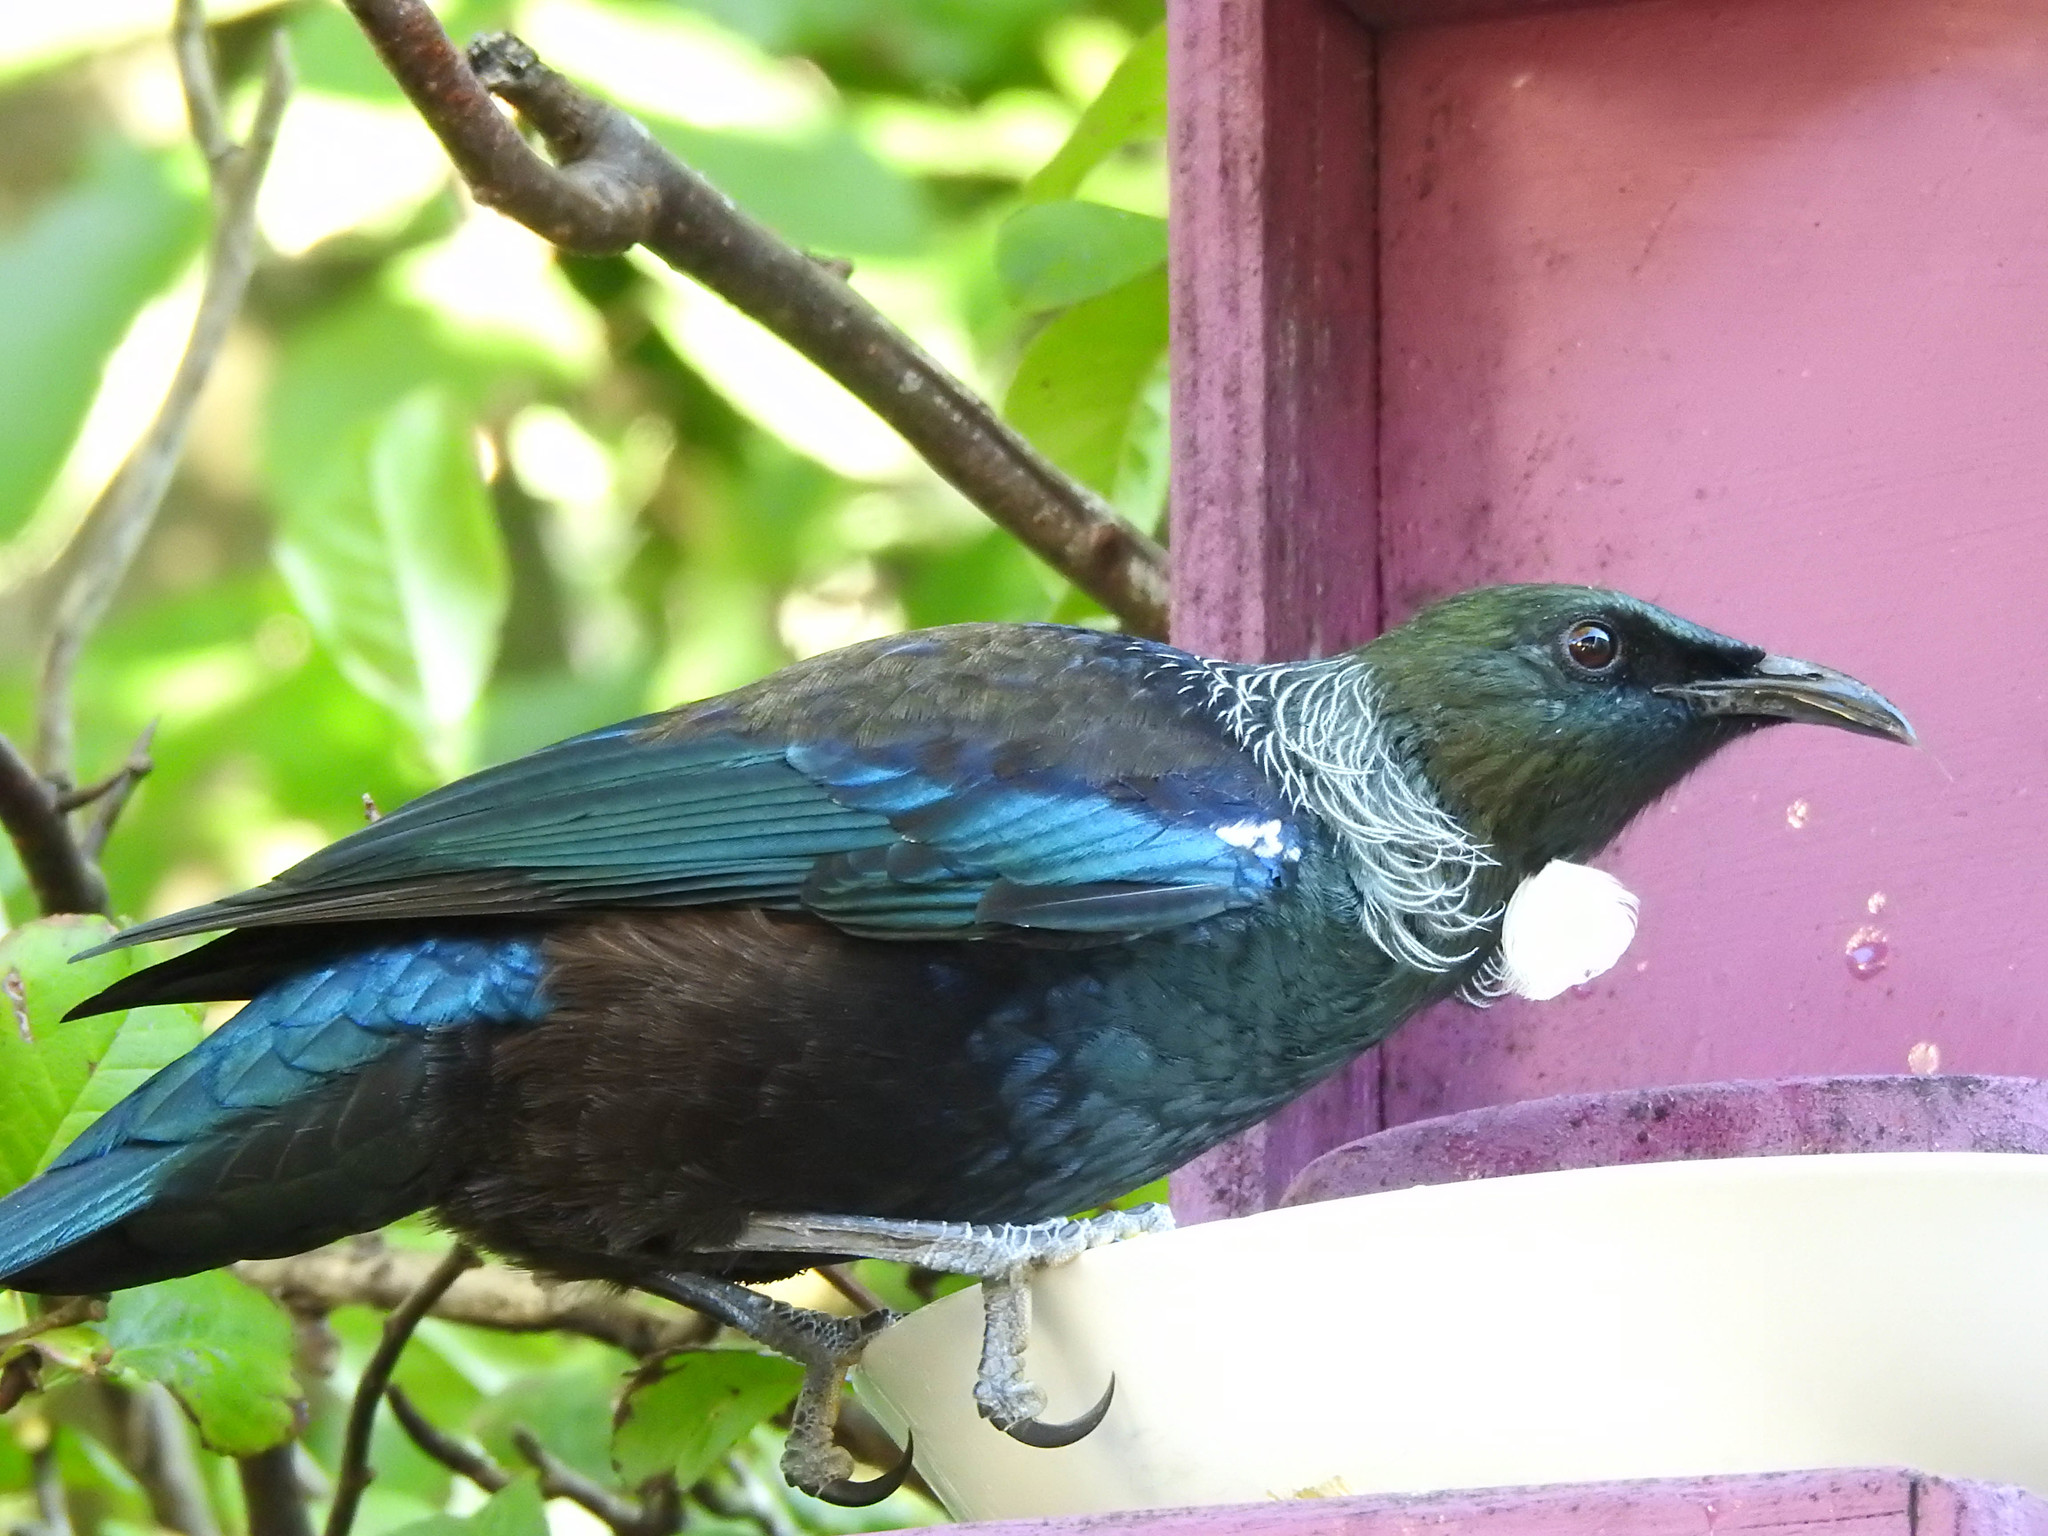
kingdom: Animalia
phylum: Chordata
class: Aves
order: Passeriformes
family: Meliphagidae
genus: Prosthemadera
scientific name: Prosthemadera novaeseelandiae
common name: Tui
